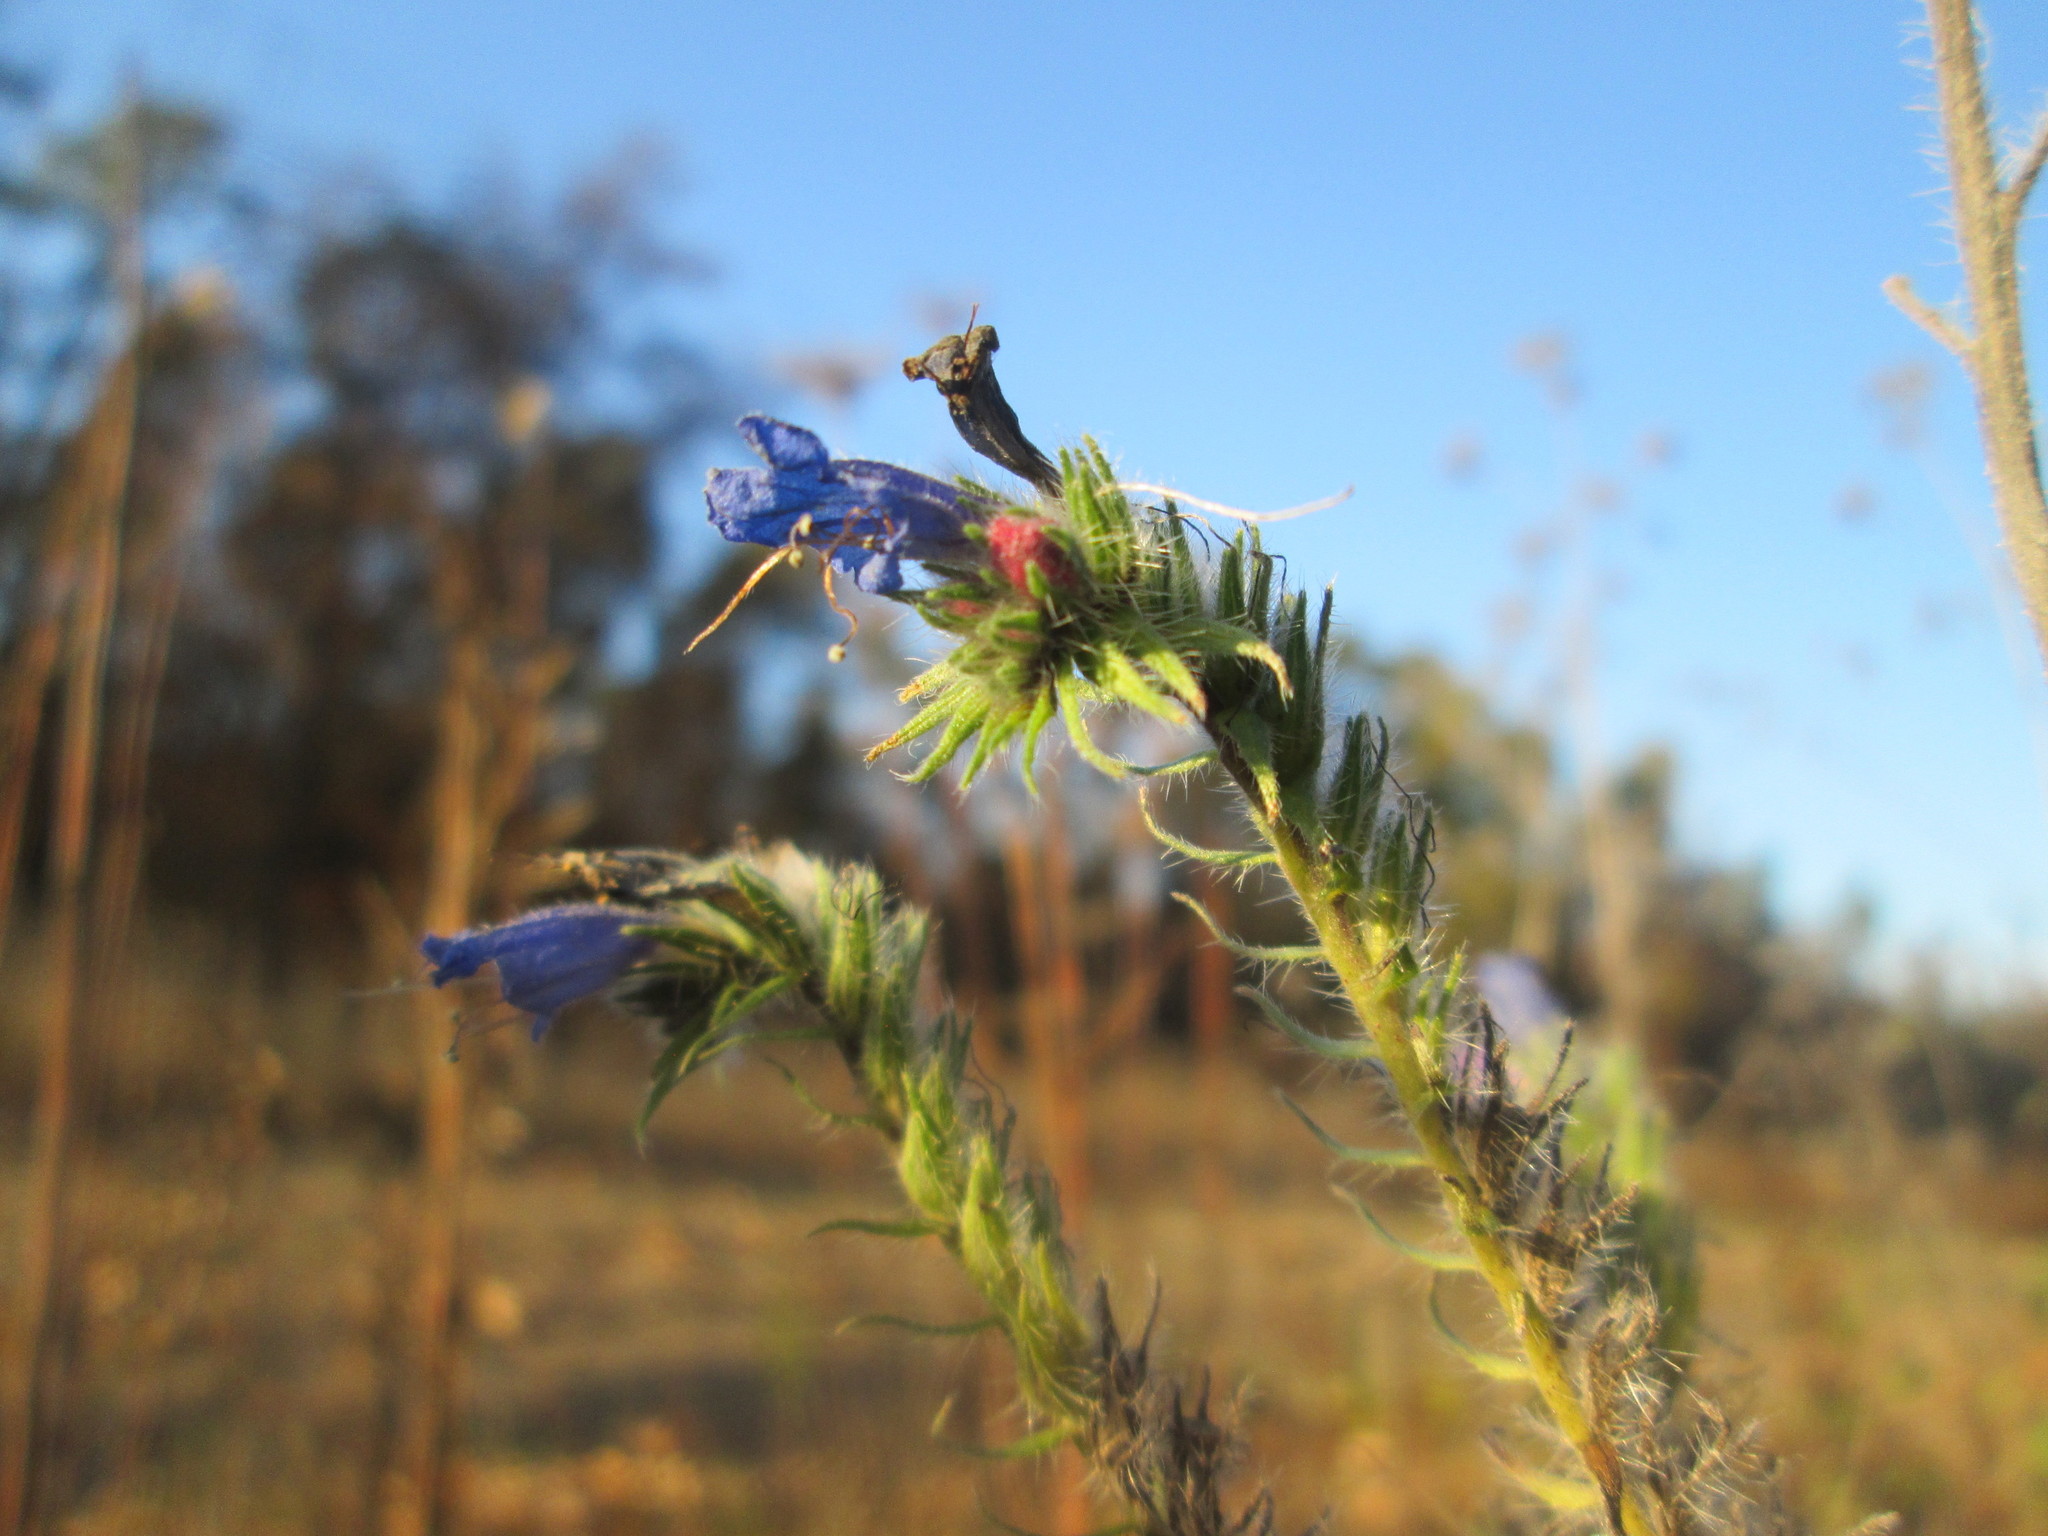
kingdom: Plantae
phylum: Tracheophyta
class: Magnoliopsida
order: Boraginales
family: Boraginaceae
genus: Echium
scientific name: Echium vulgare
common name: Common viper's bugloss
